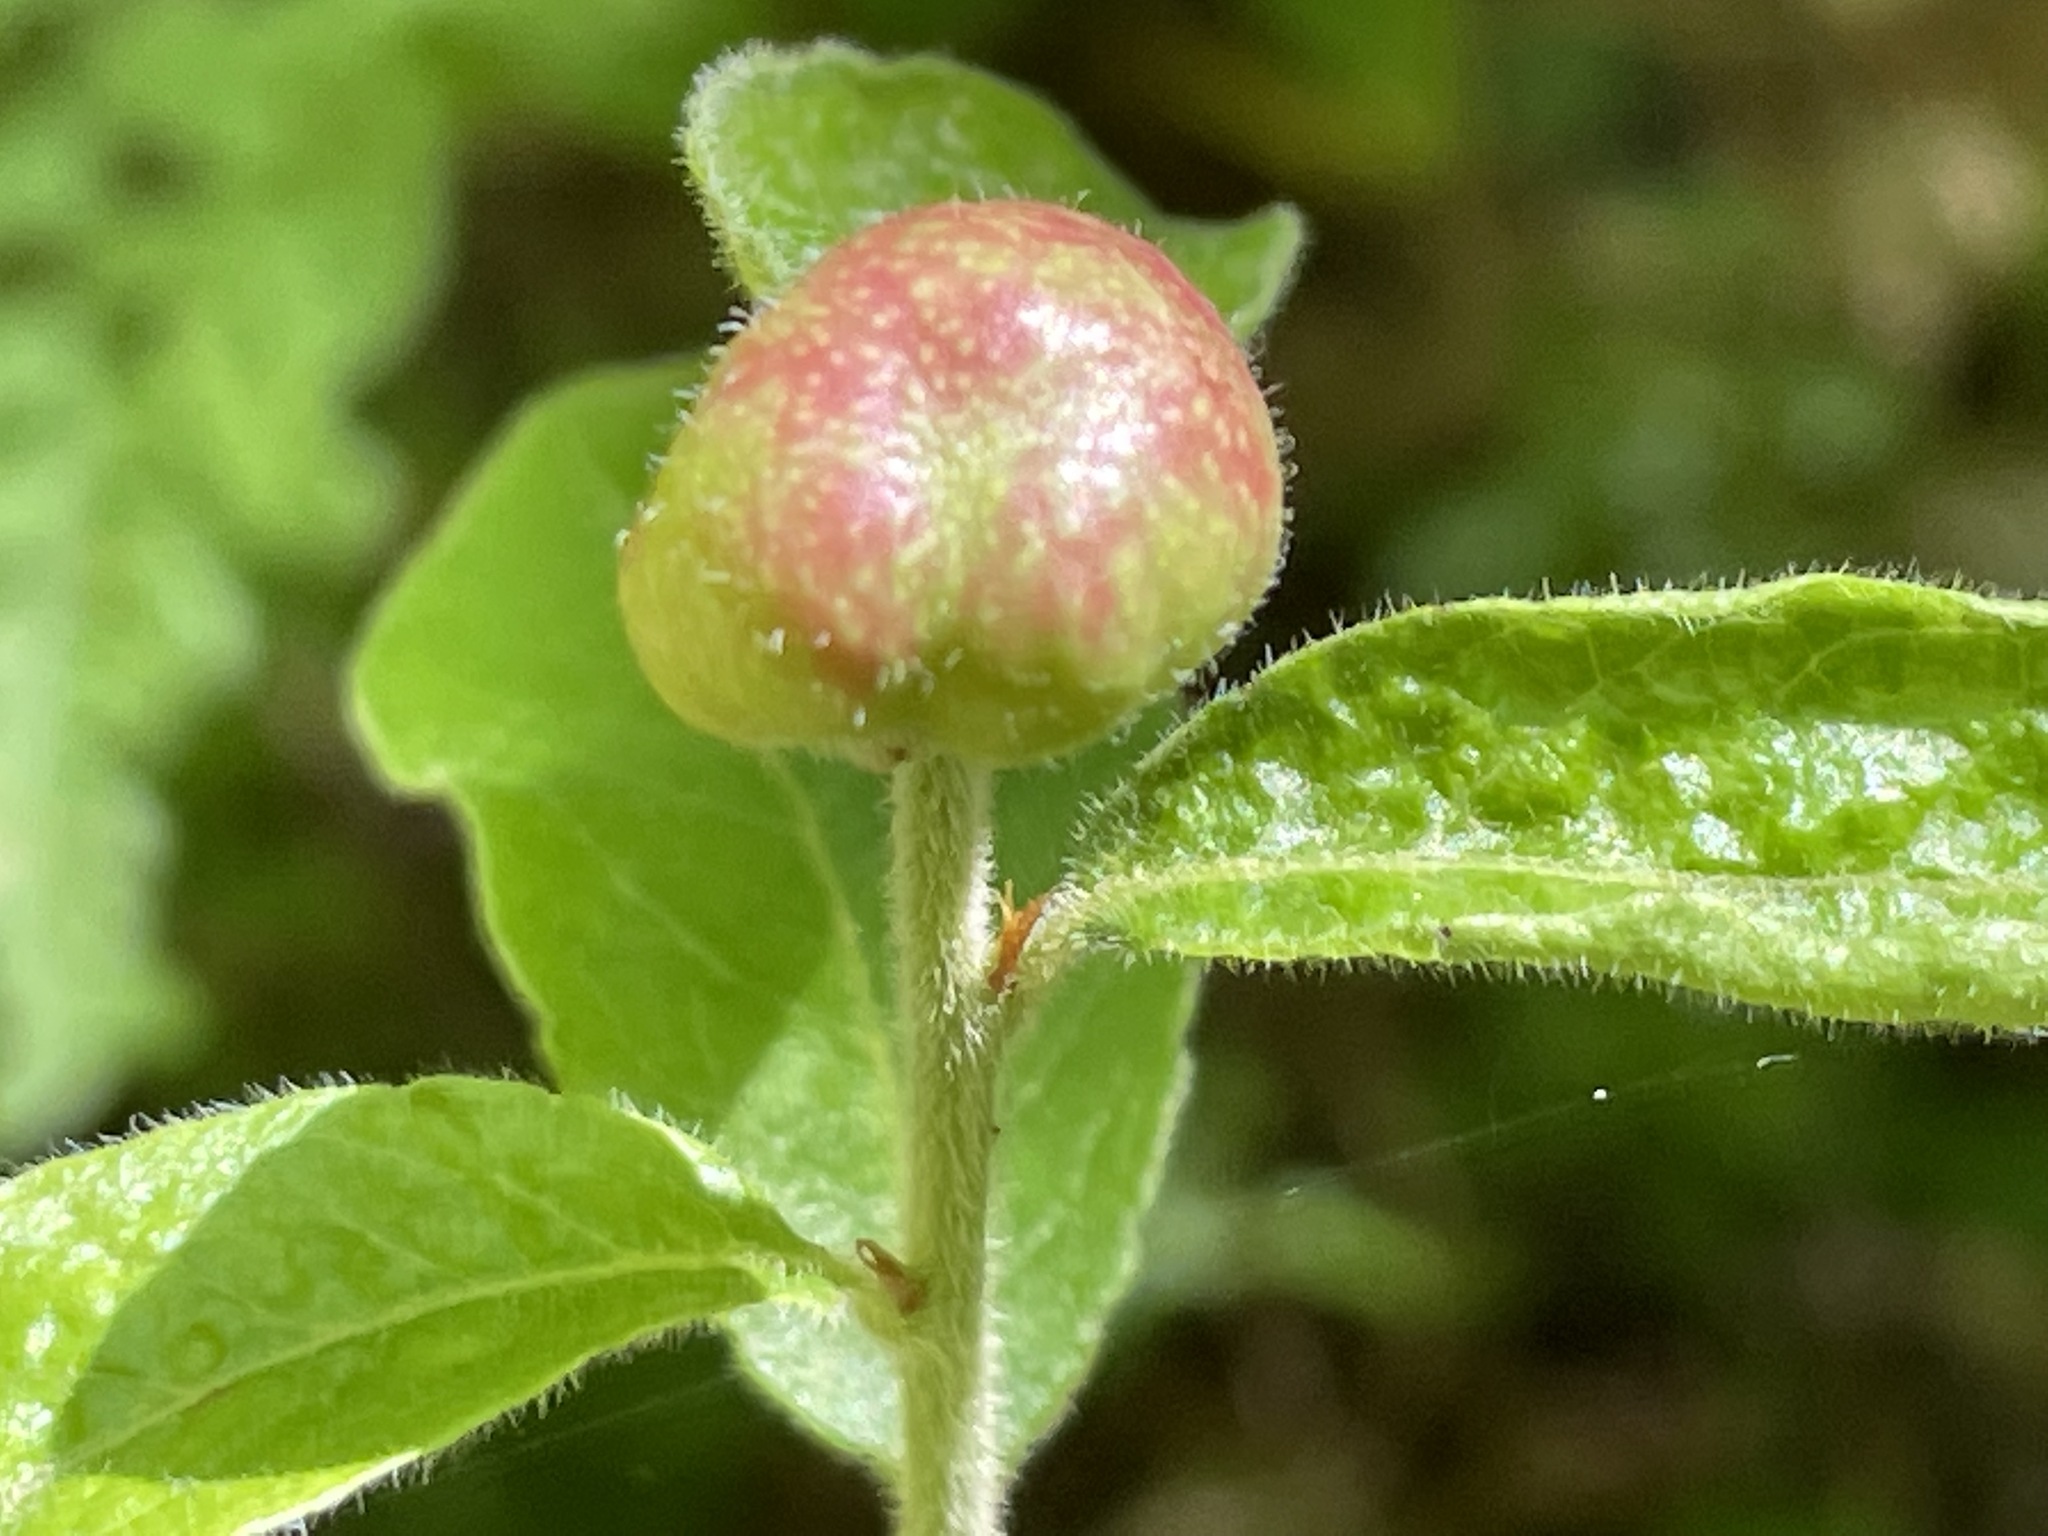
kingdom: Animalia
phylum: Arthropoda
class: Insecta
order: Hymenoptera
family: Pteromalidae
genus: Hemadas
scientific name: Hemadas nubilipennis
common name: Blueberry stem gall wasp
